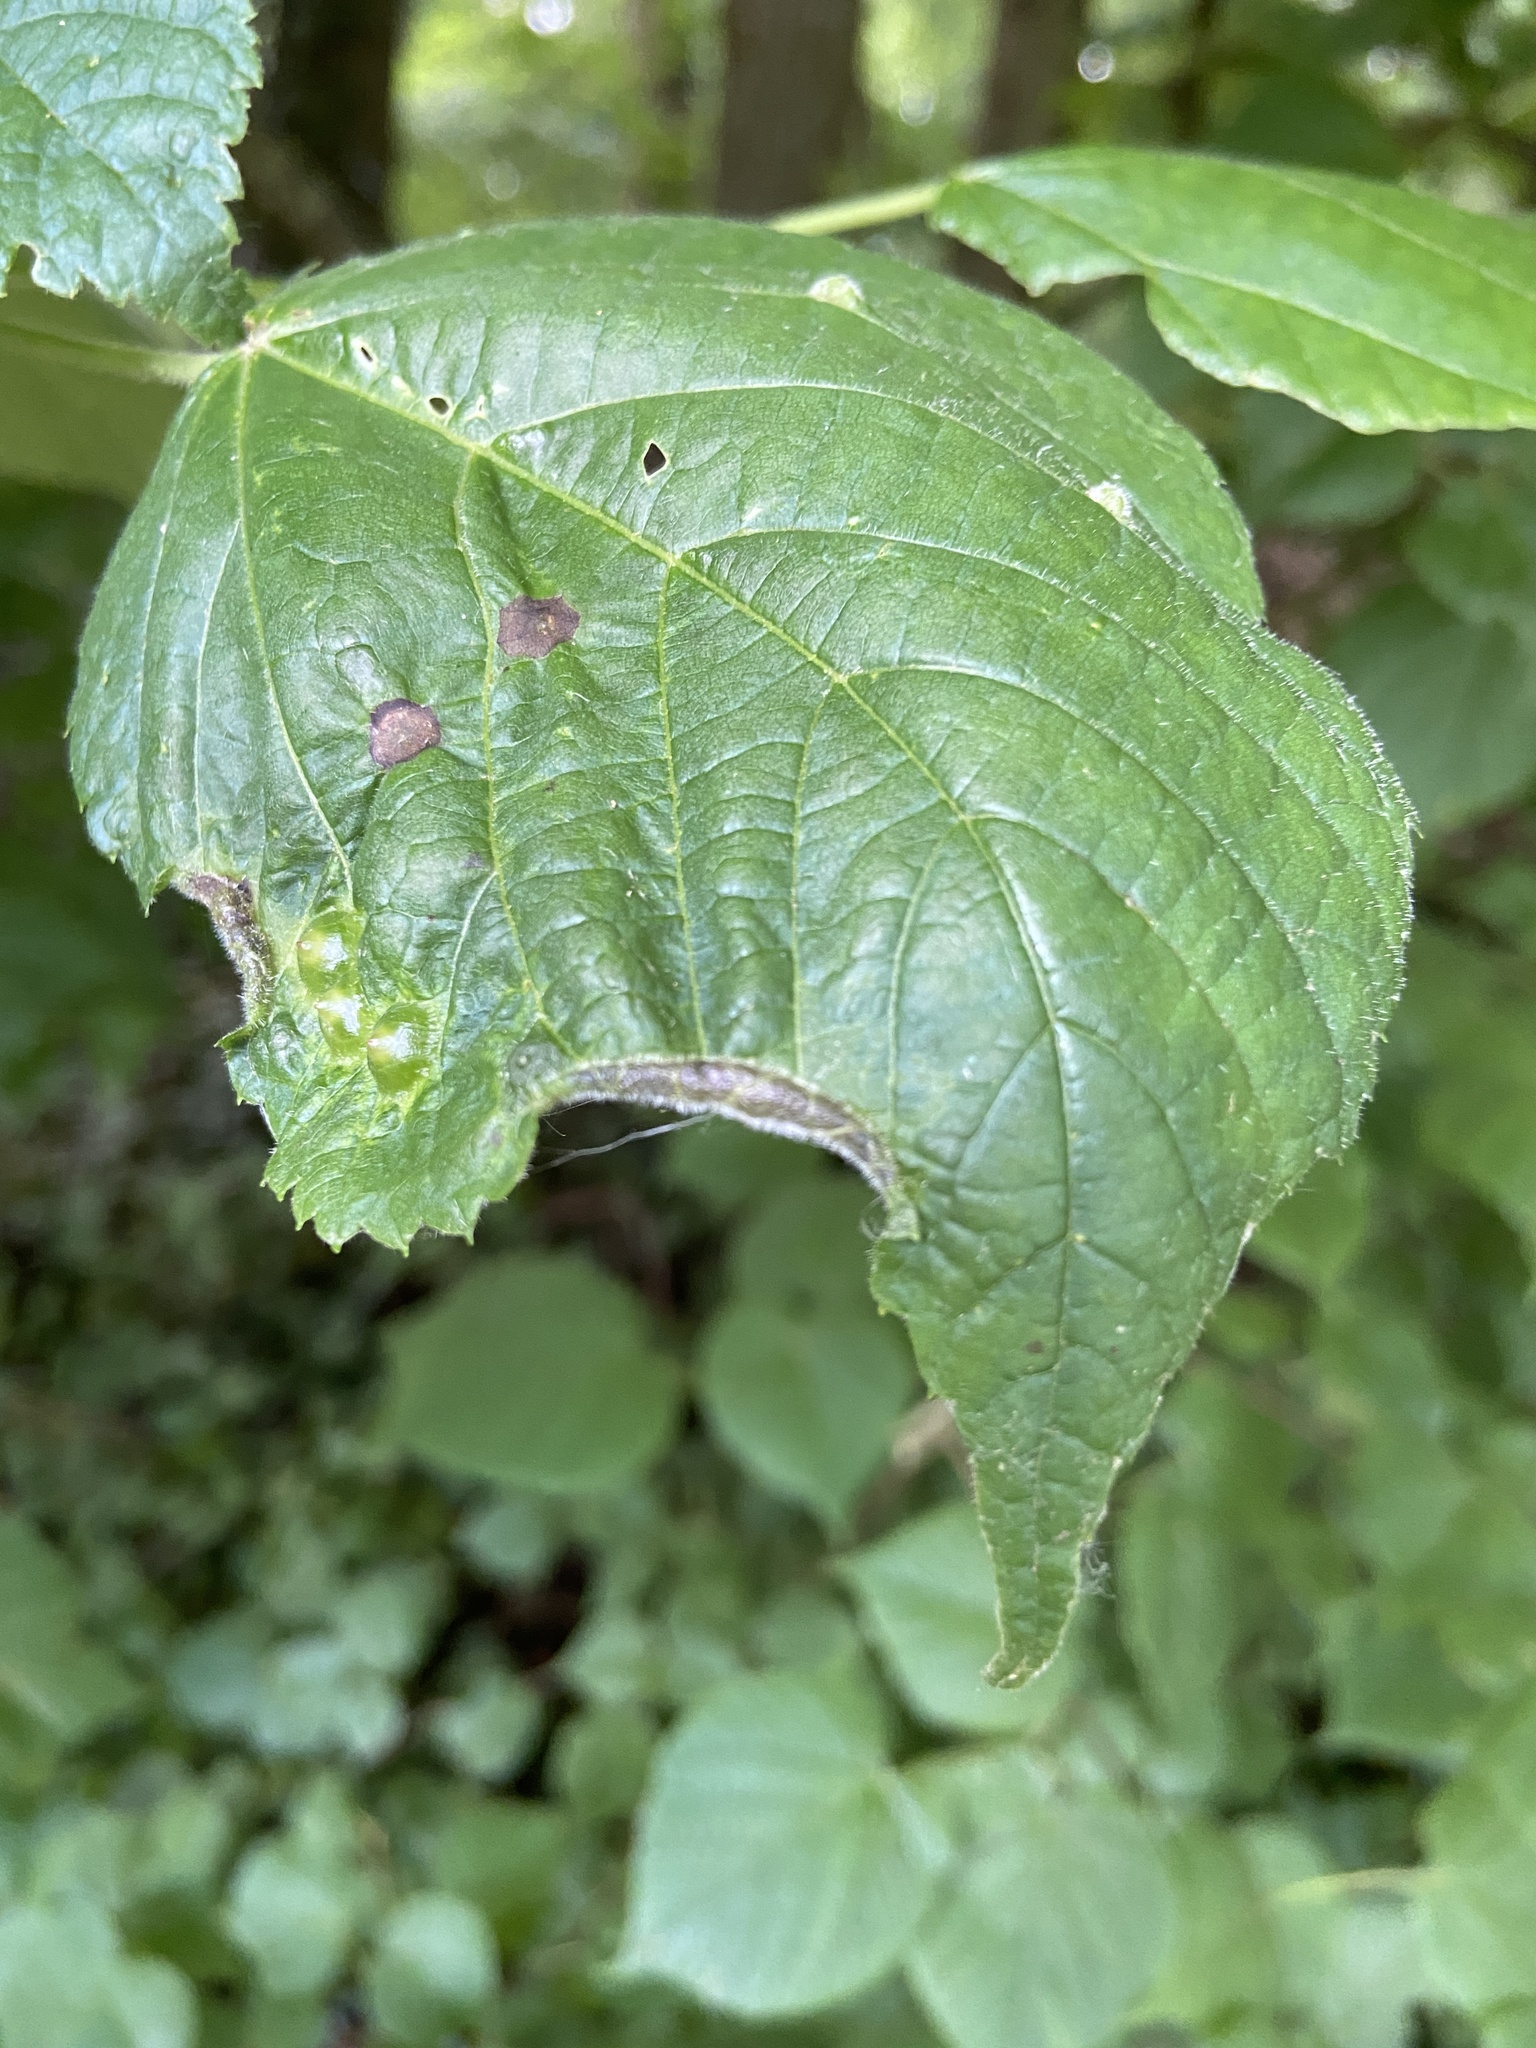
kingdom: Animalia
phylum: Arthropoda
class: Insecta
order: Diptera
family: Cecidomyiidae
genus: Dasineura
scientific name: Dasineura tiliae
